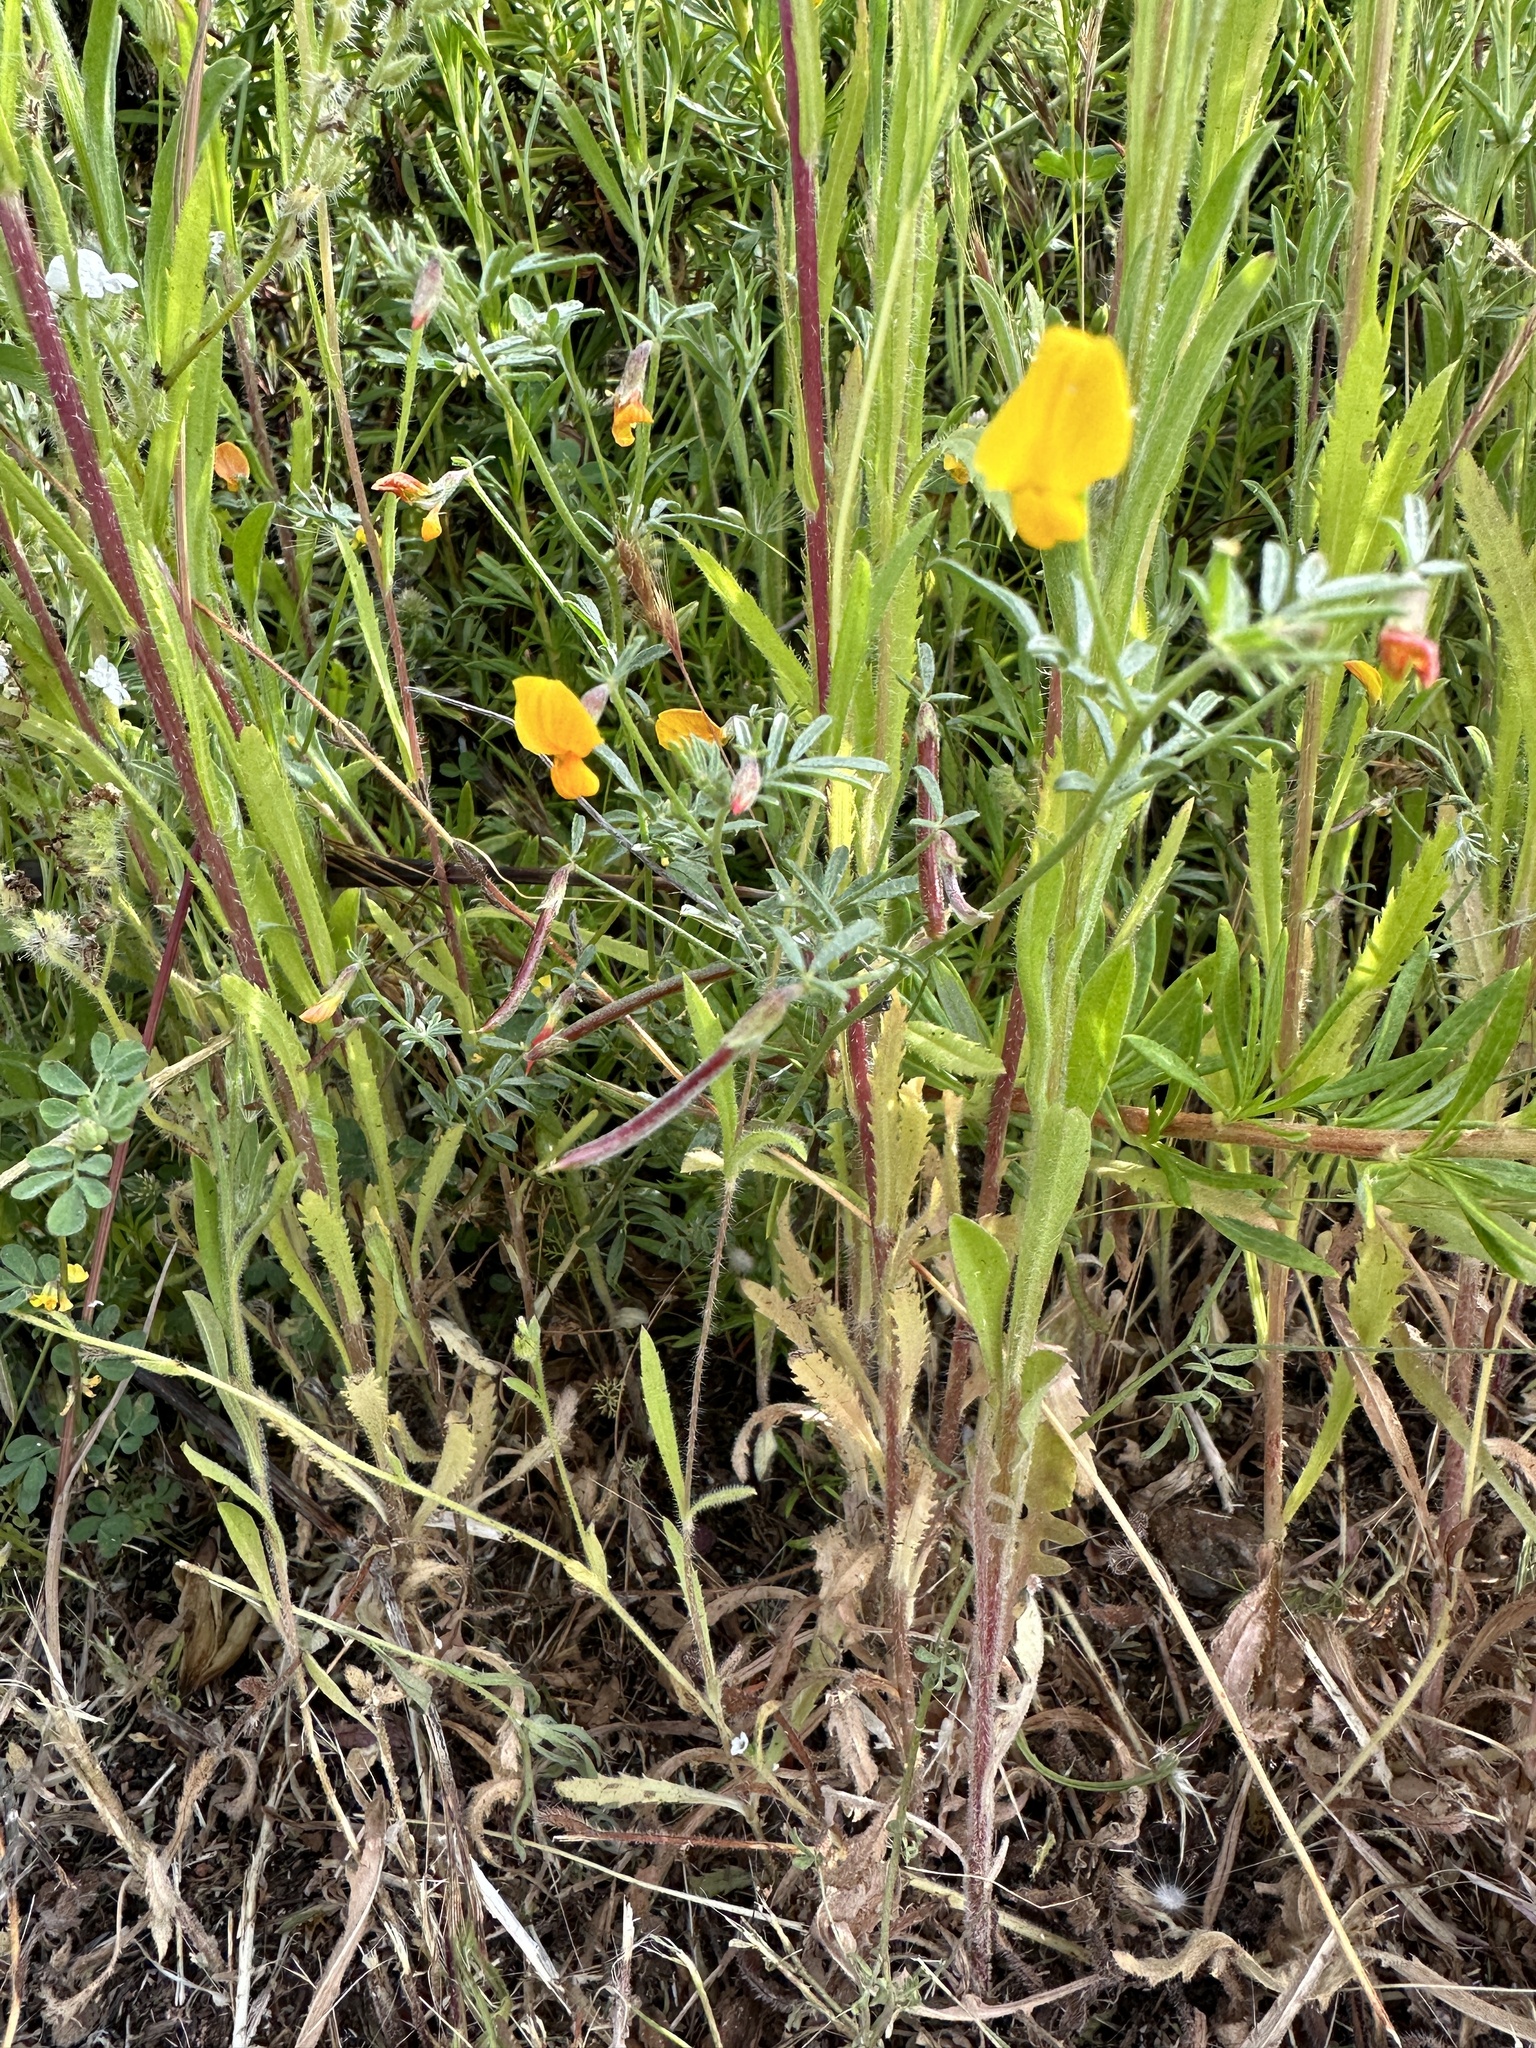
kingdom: Plantae
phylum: Tracheophyta
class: Magnoliopsida
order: Fabales
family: Fabaceae
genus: Acmispon
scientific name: Acmispon strigosus
